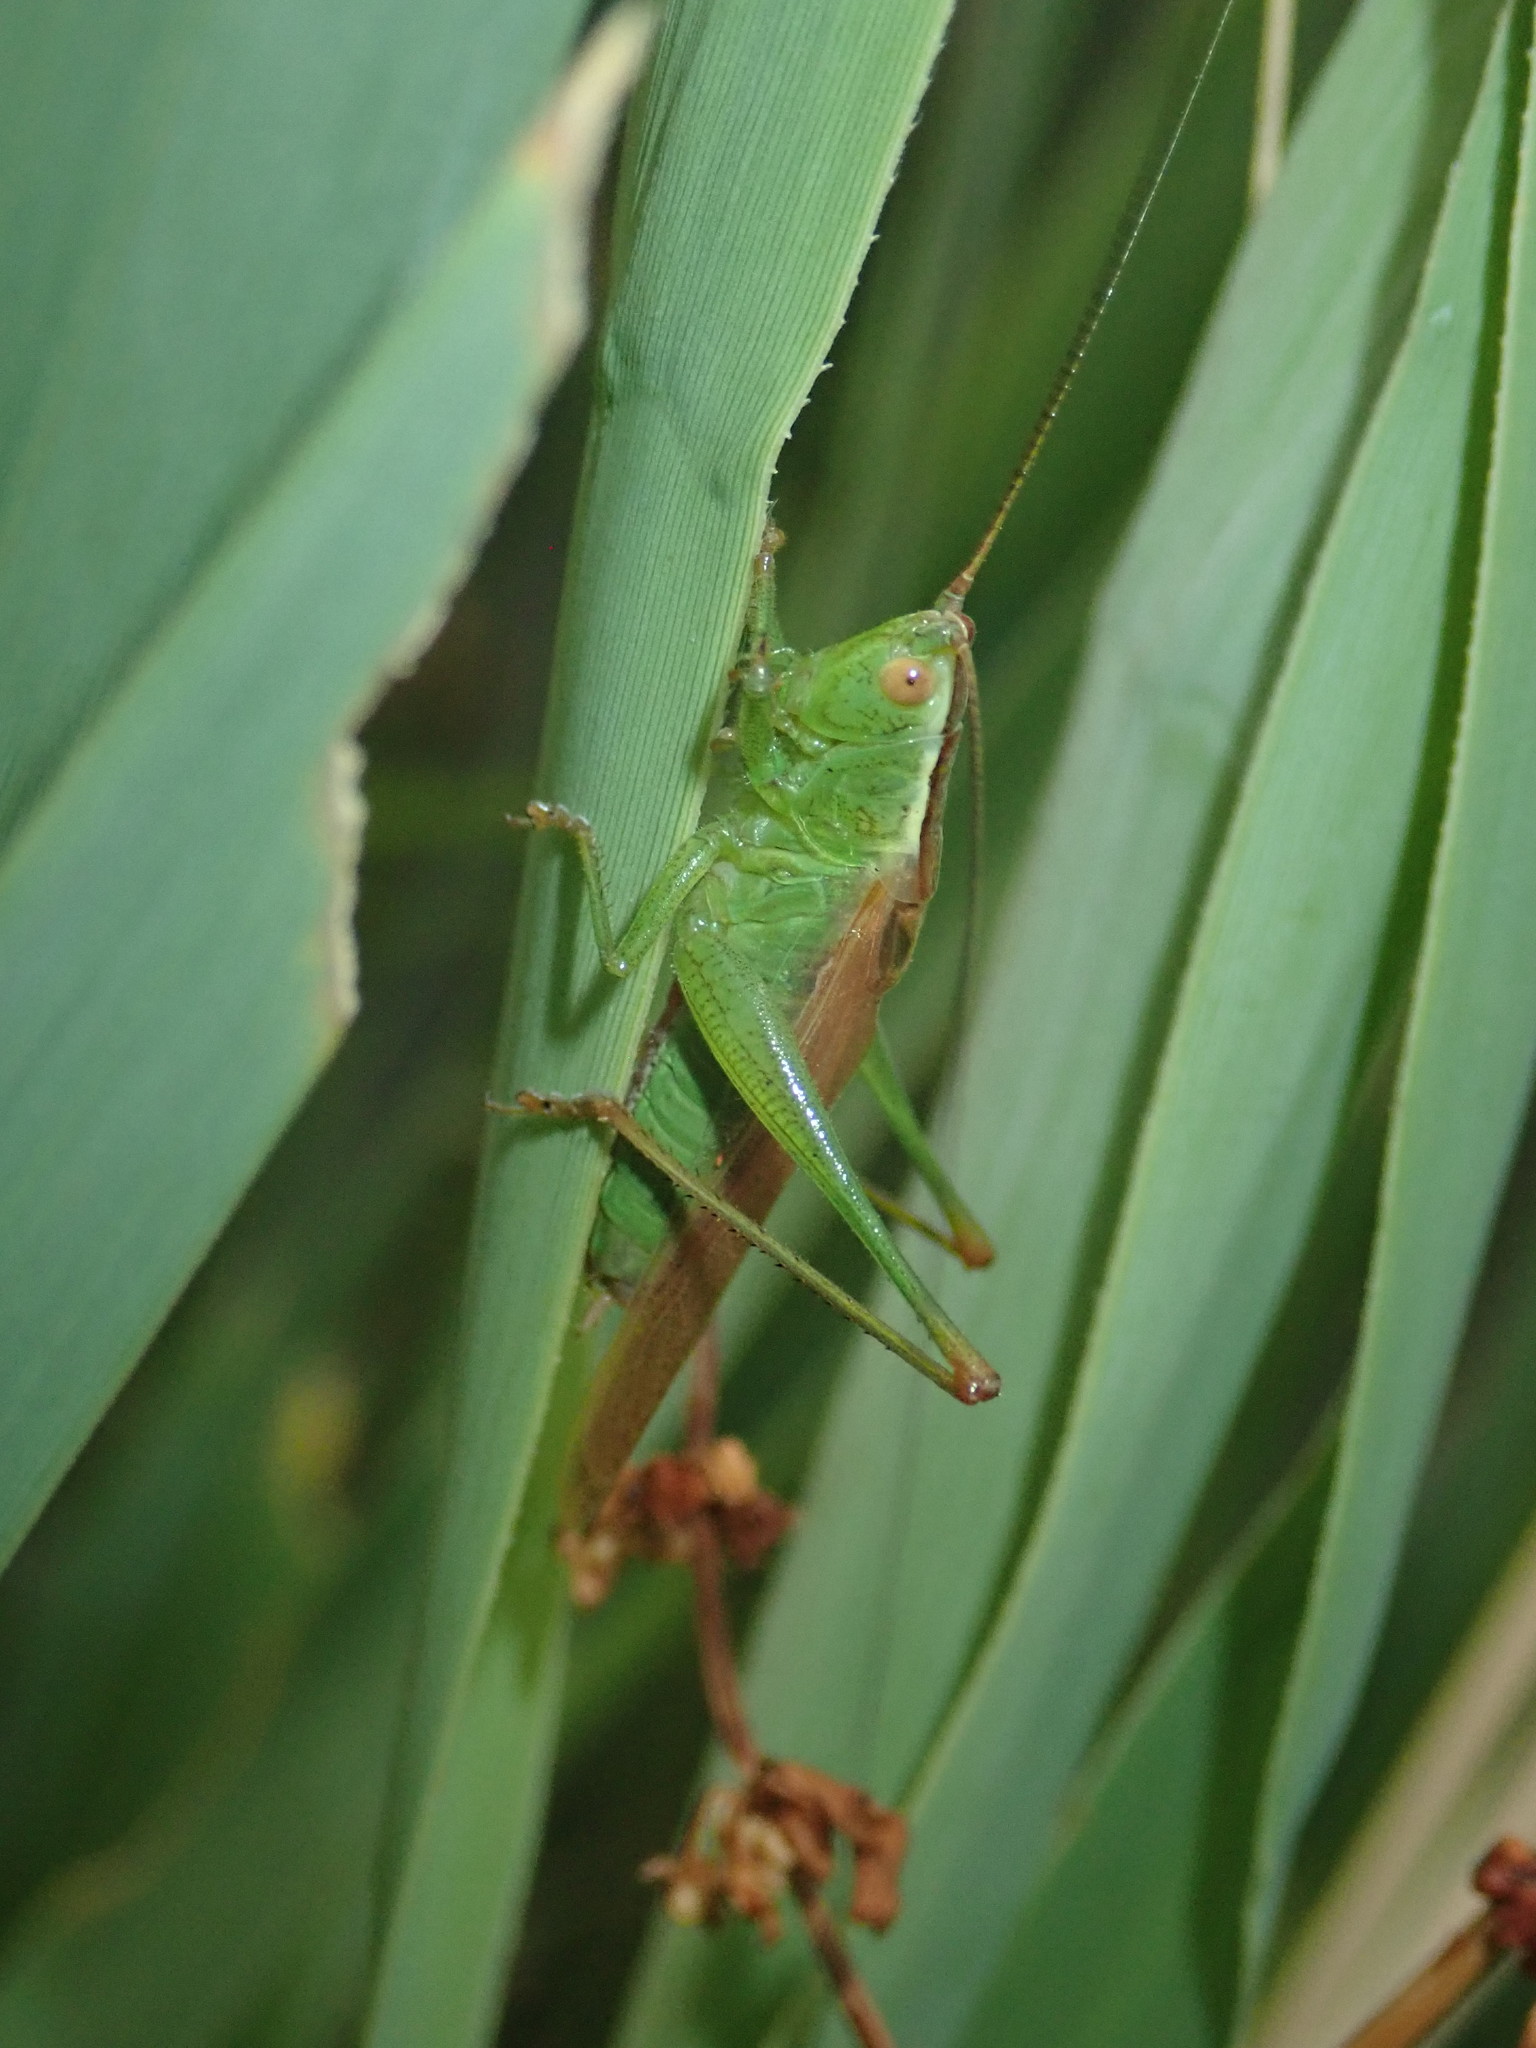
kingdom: Animalia
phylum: Arthropoda
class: Insecta
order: Orthoptera
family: Tettigoniidae
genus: Conocephalus
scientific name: Conocephalus fuscus
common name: Long-winged conehead
